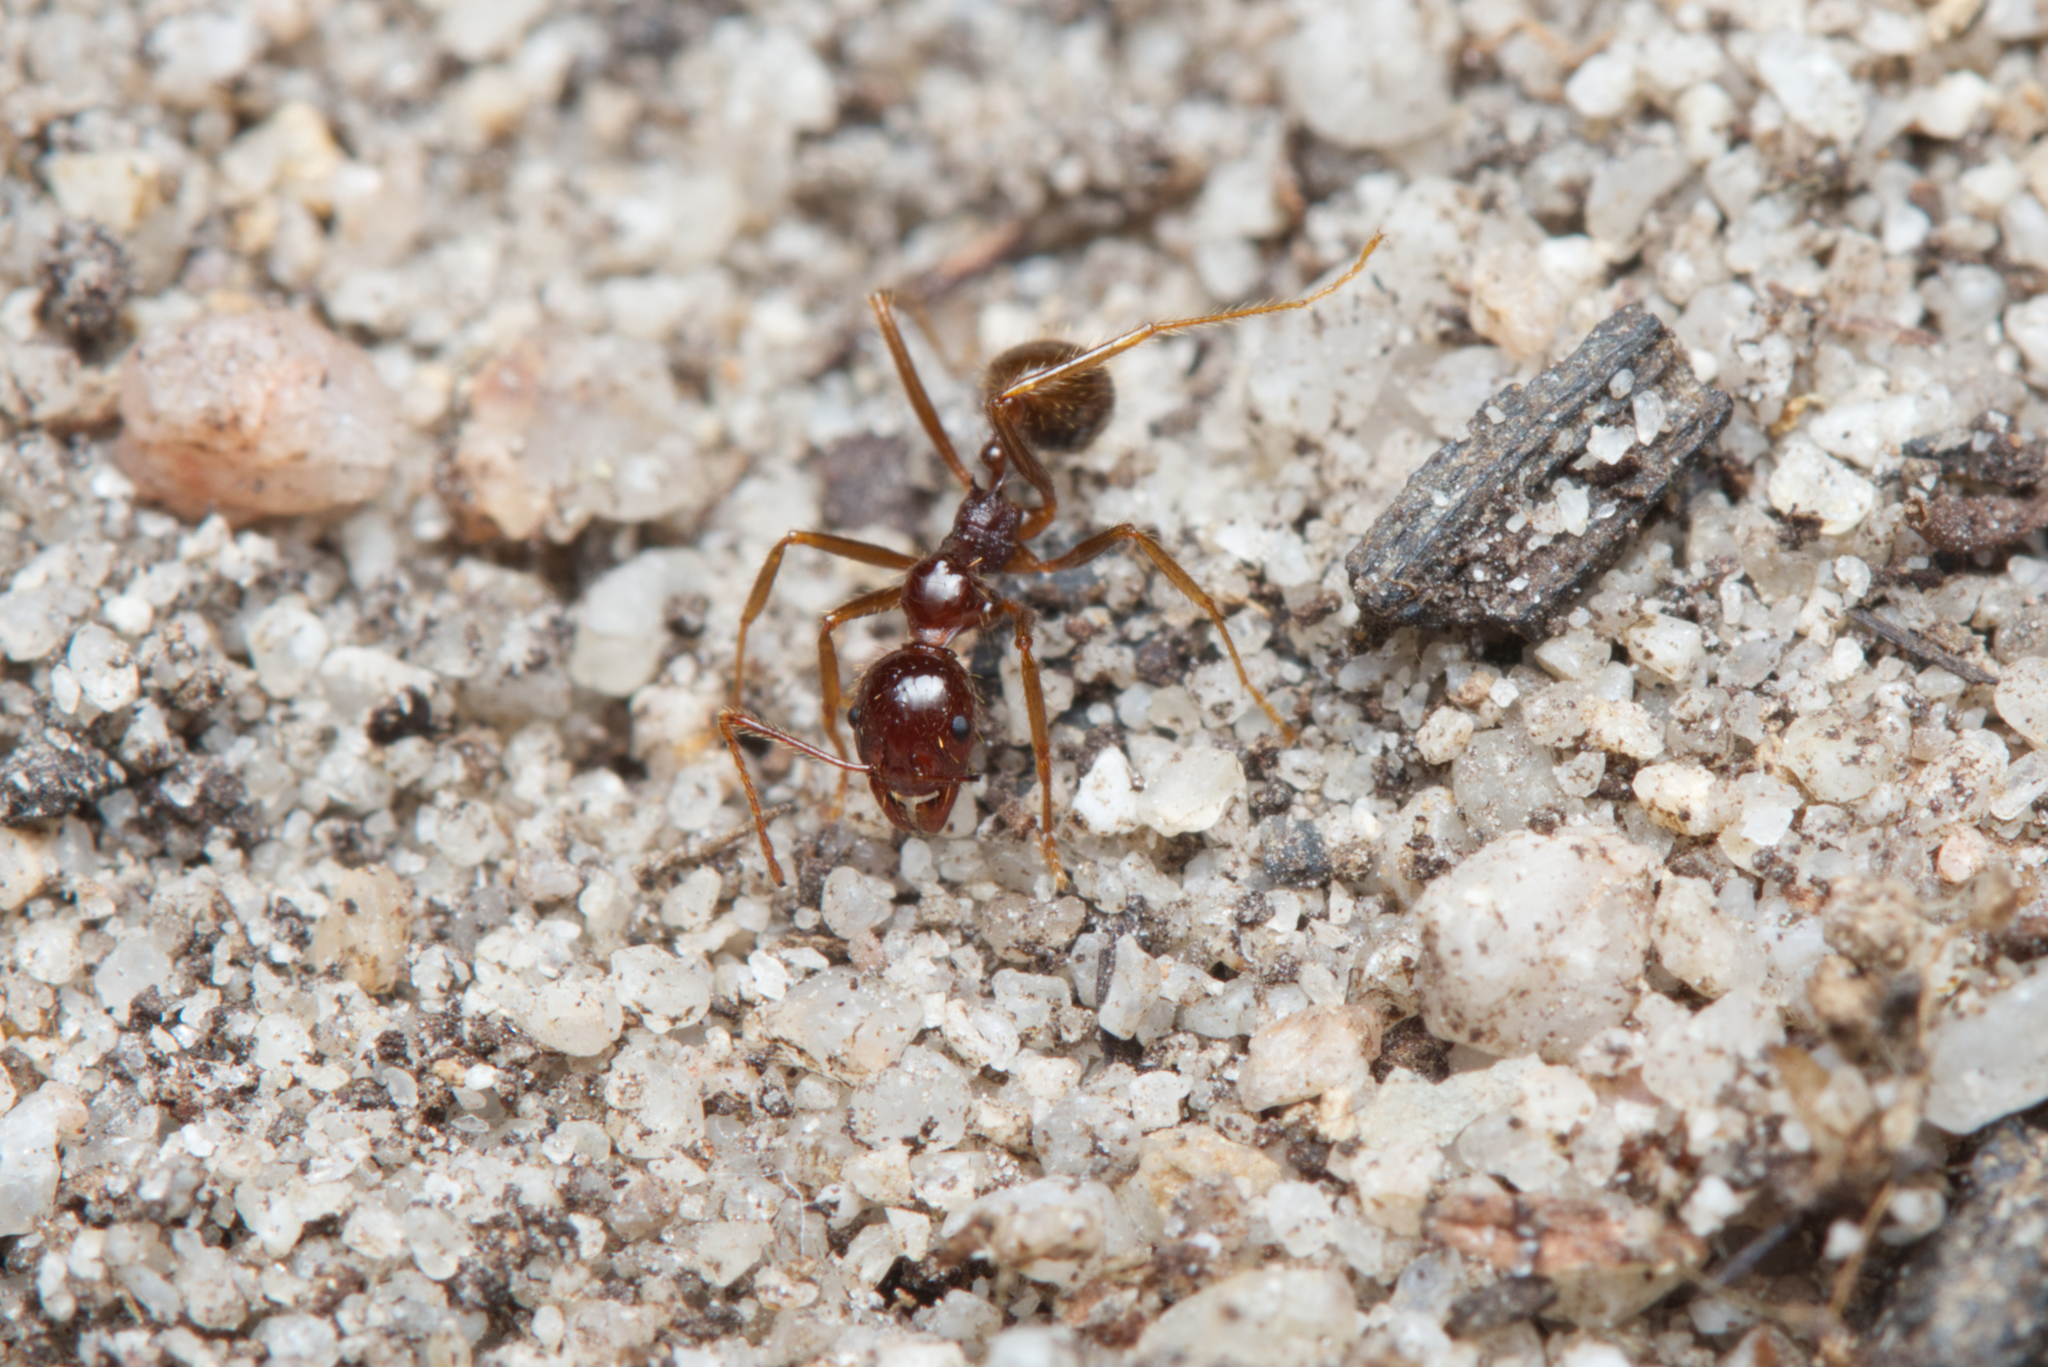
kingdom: Animalia
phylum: Arthropoda
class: Insecta
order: Hymenoptera
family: Formicidae
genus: Aphaenogaster
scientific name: Aphaenogaster longiceps
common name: Funnel ant
